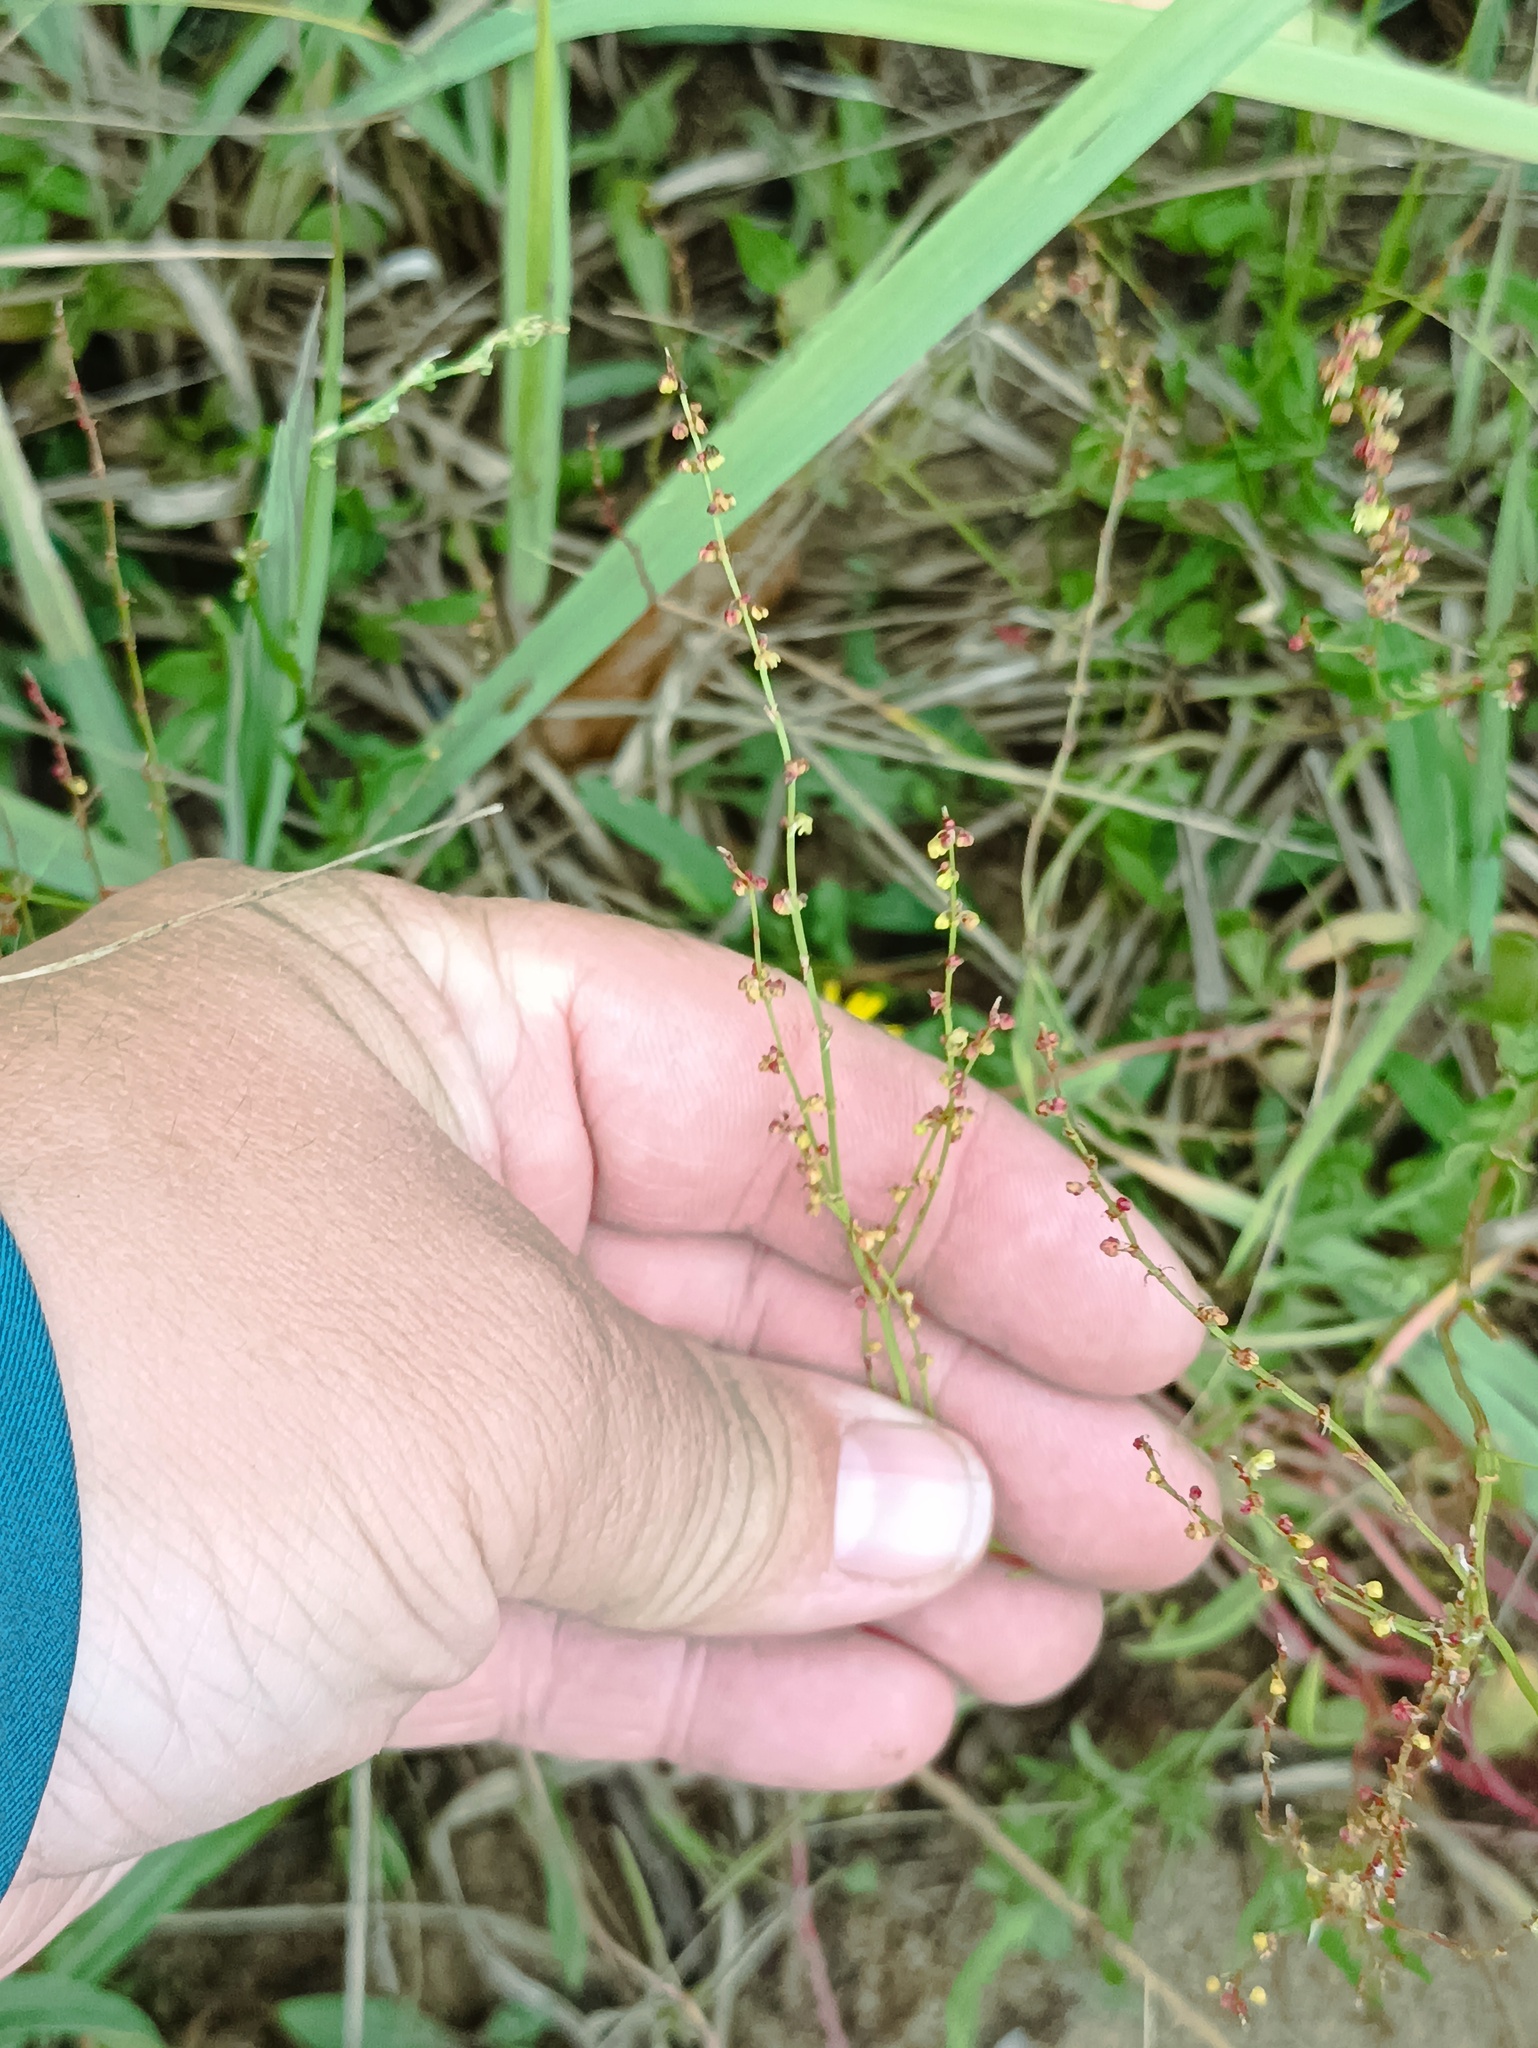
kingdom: Plantae
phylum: Tracheophyta
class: Magnoliopsida
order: Caryophyllales
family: Polygonaceae
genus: Rumex
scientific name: Rumex acetosella
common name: Common sheep sorrel
